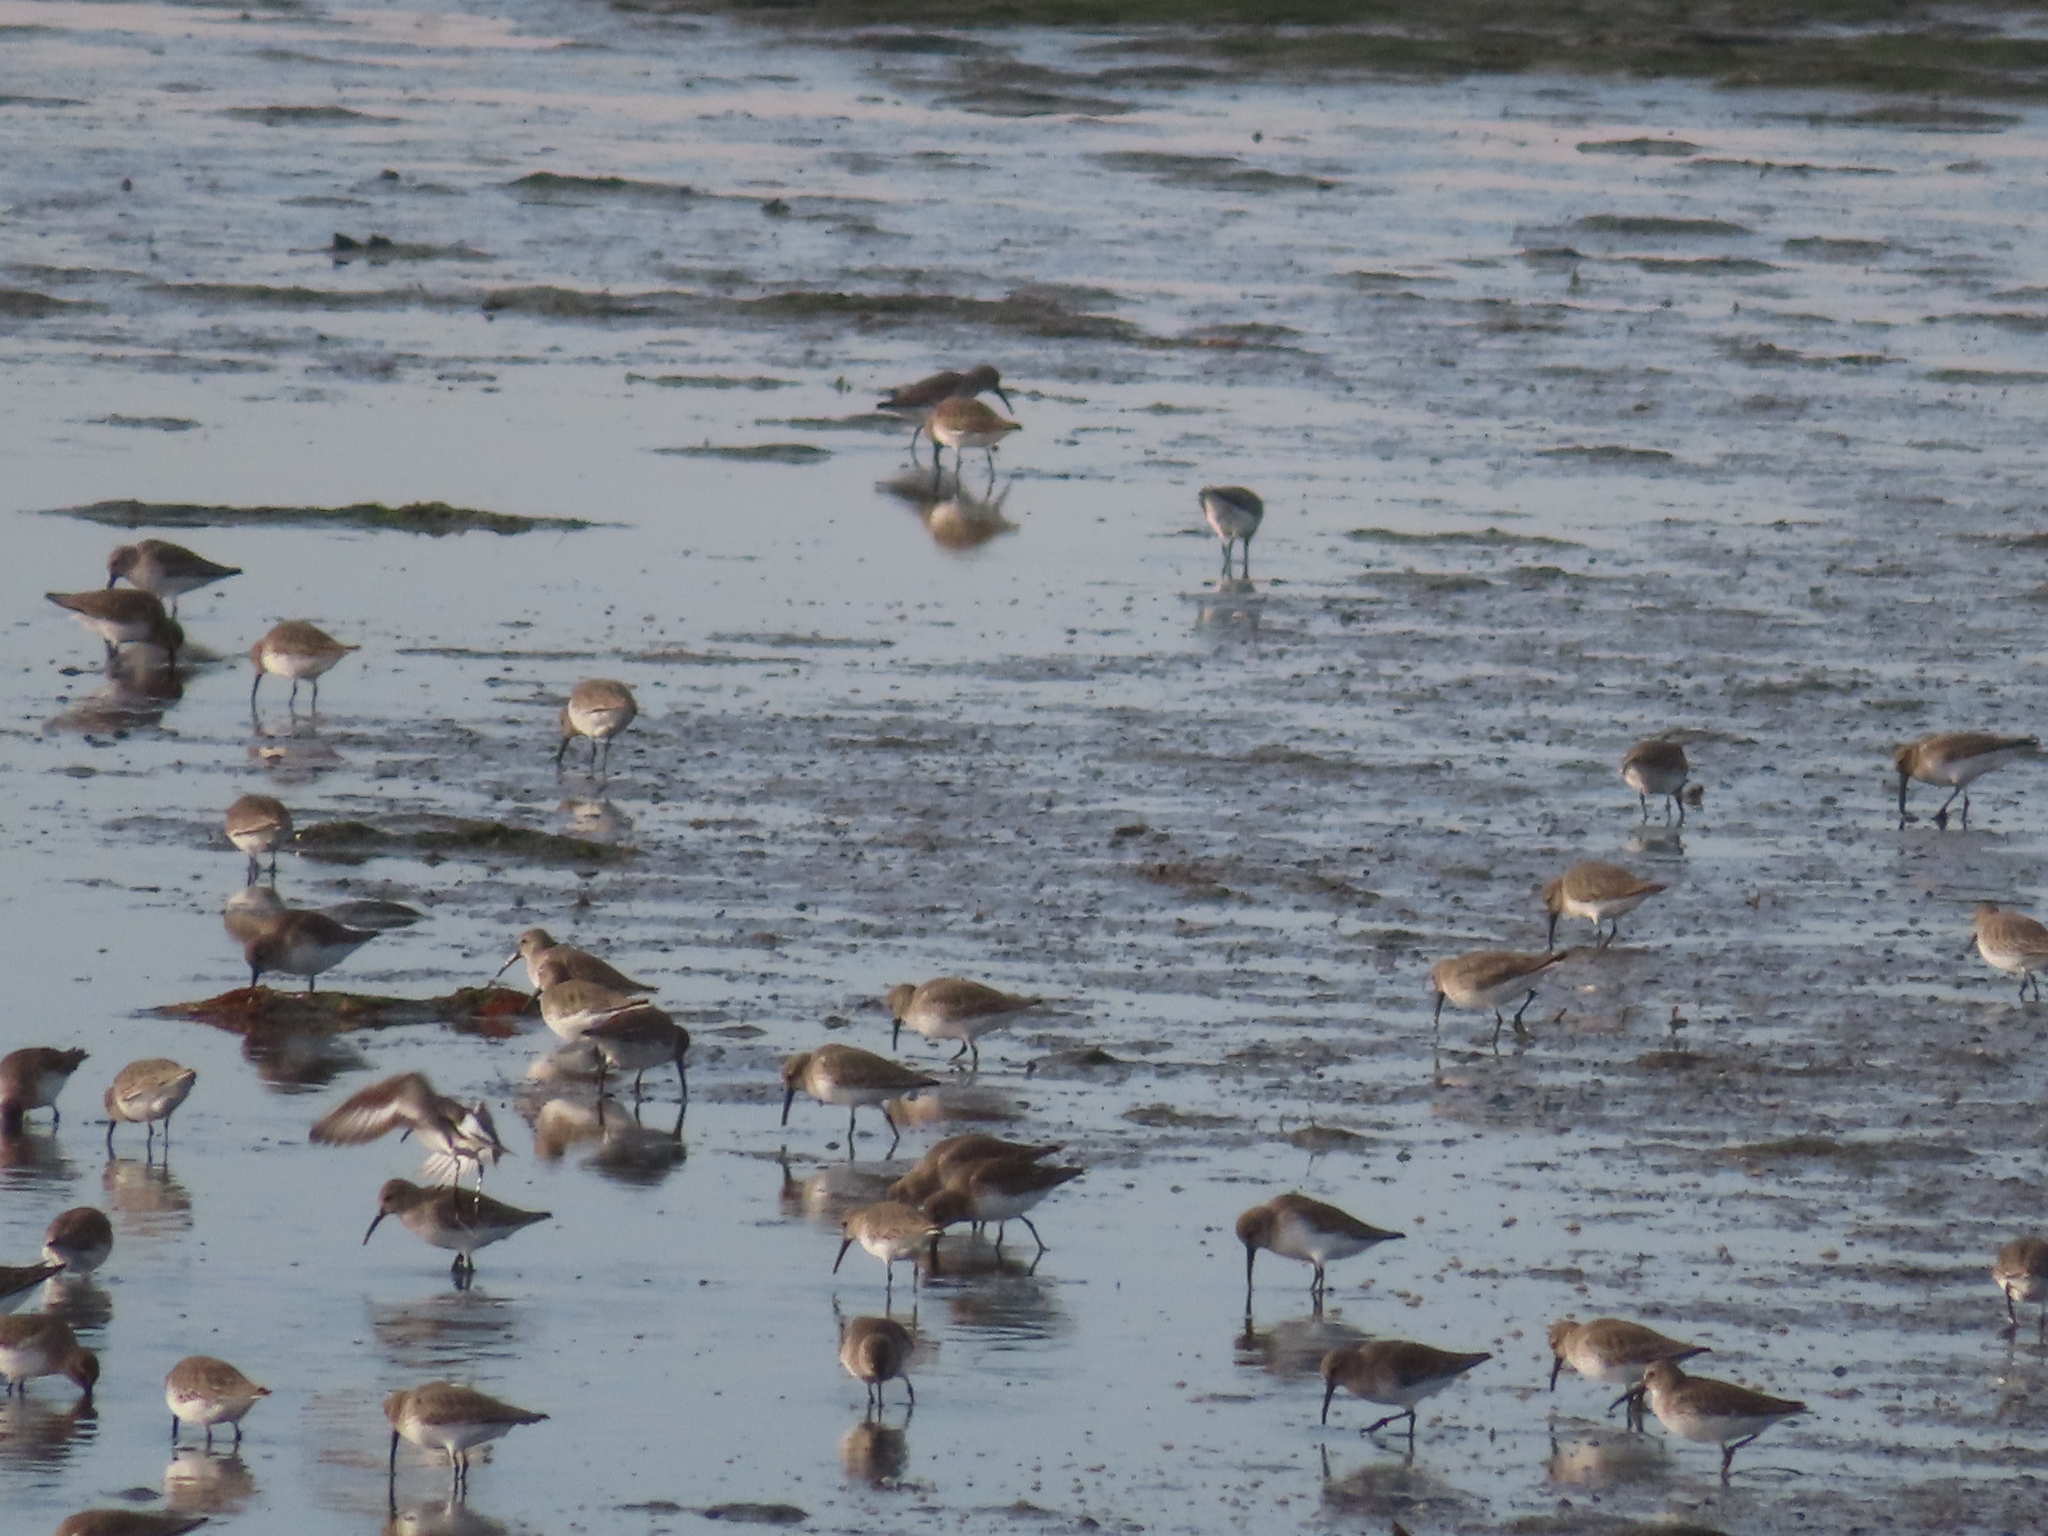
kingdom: Animalia
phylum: Chordata
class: Aves
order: Charadriiformes
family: Scolopacidae
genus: Calidris
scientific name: Calidris alpina
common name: Dunlin
